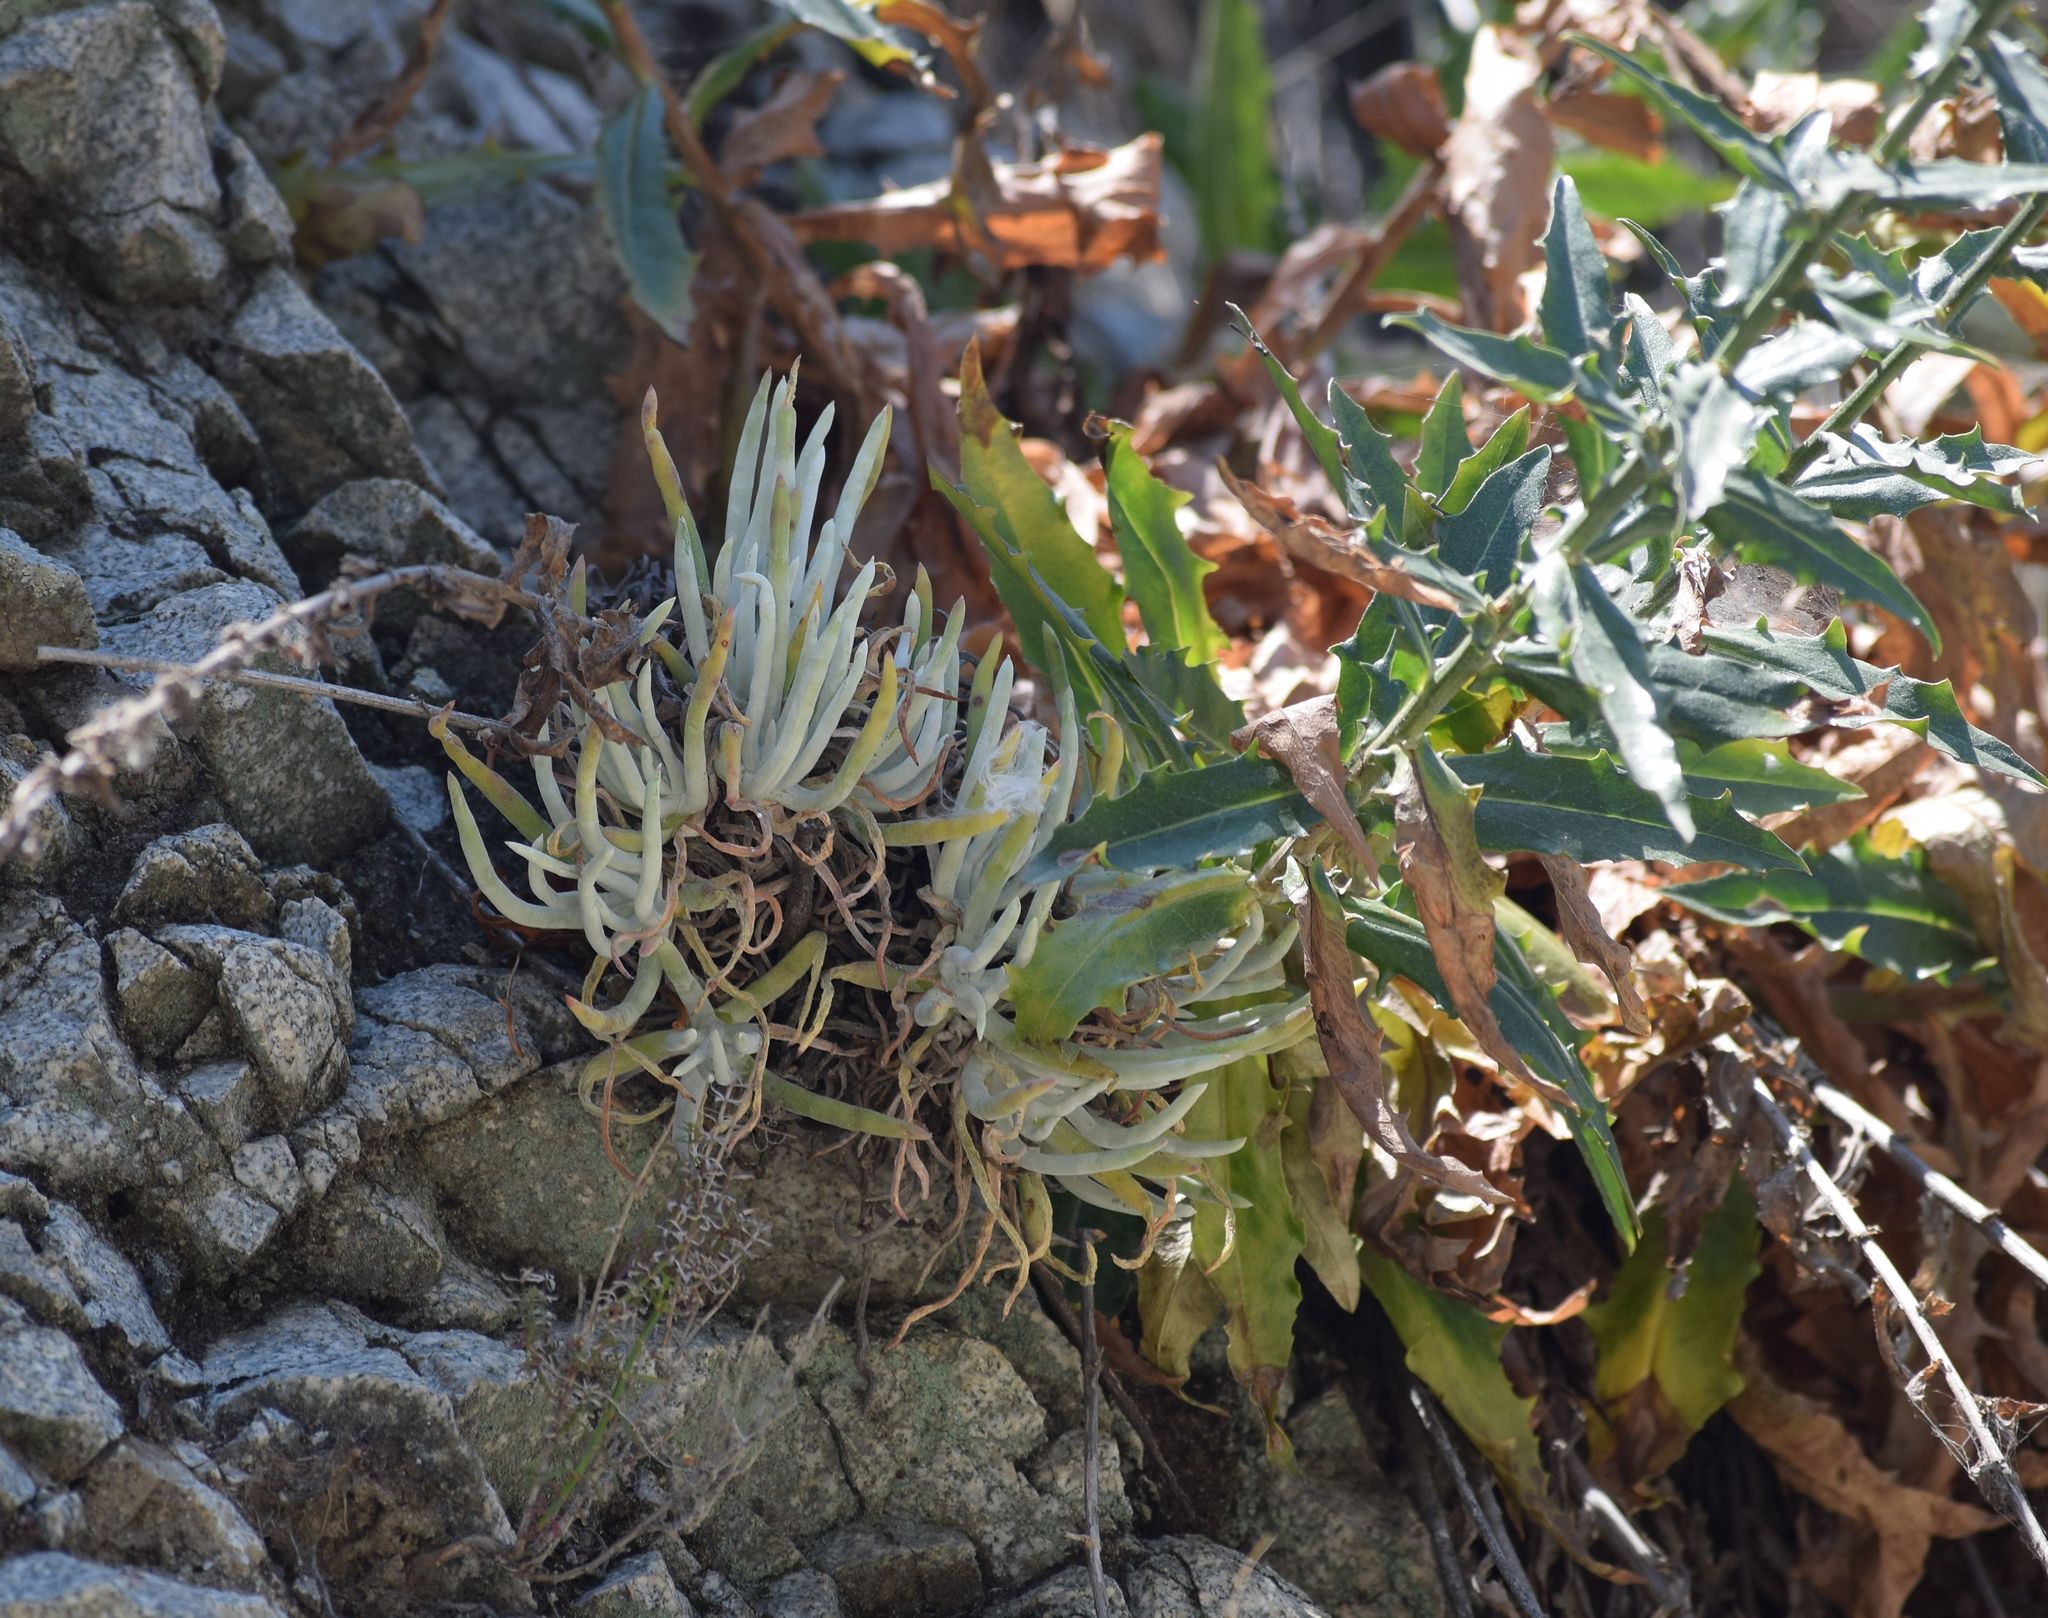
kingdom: Plantae
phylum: Tracheophyta
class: Magnoliopsida
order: Saxifragales
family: Crassulaceae
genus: Dudleya
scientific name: Dudleya densiflora
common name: San gabriel mountains dudleya
